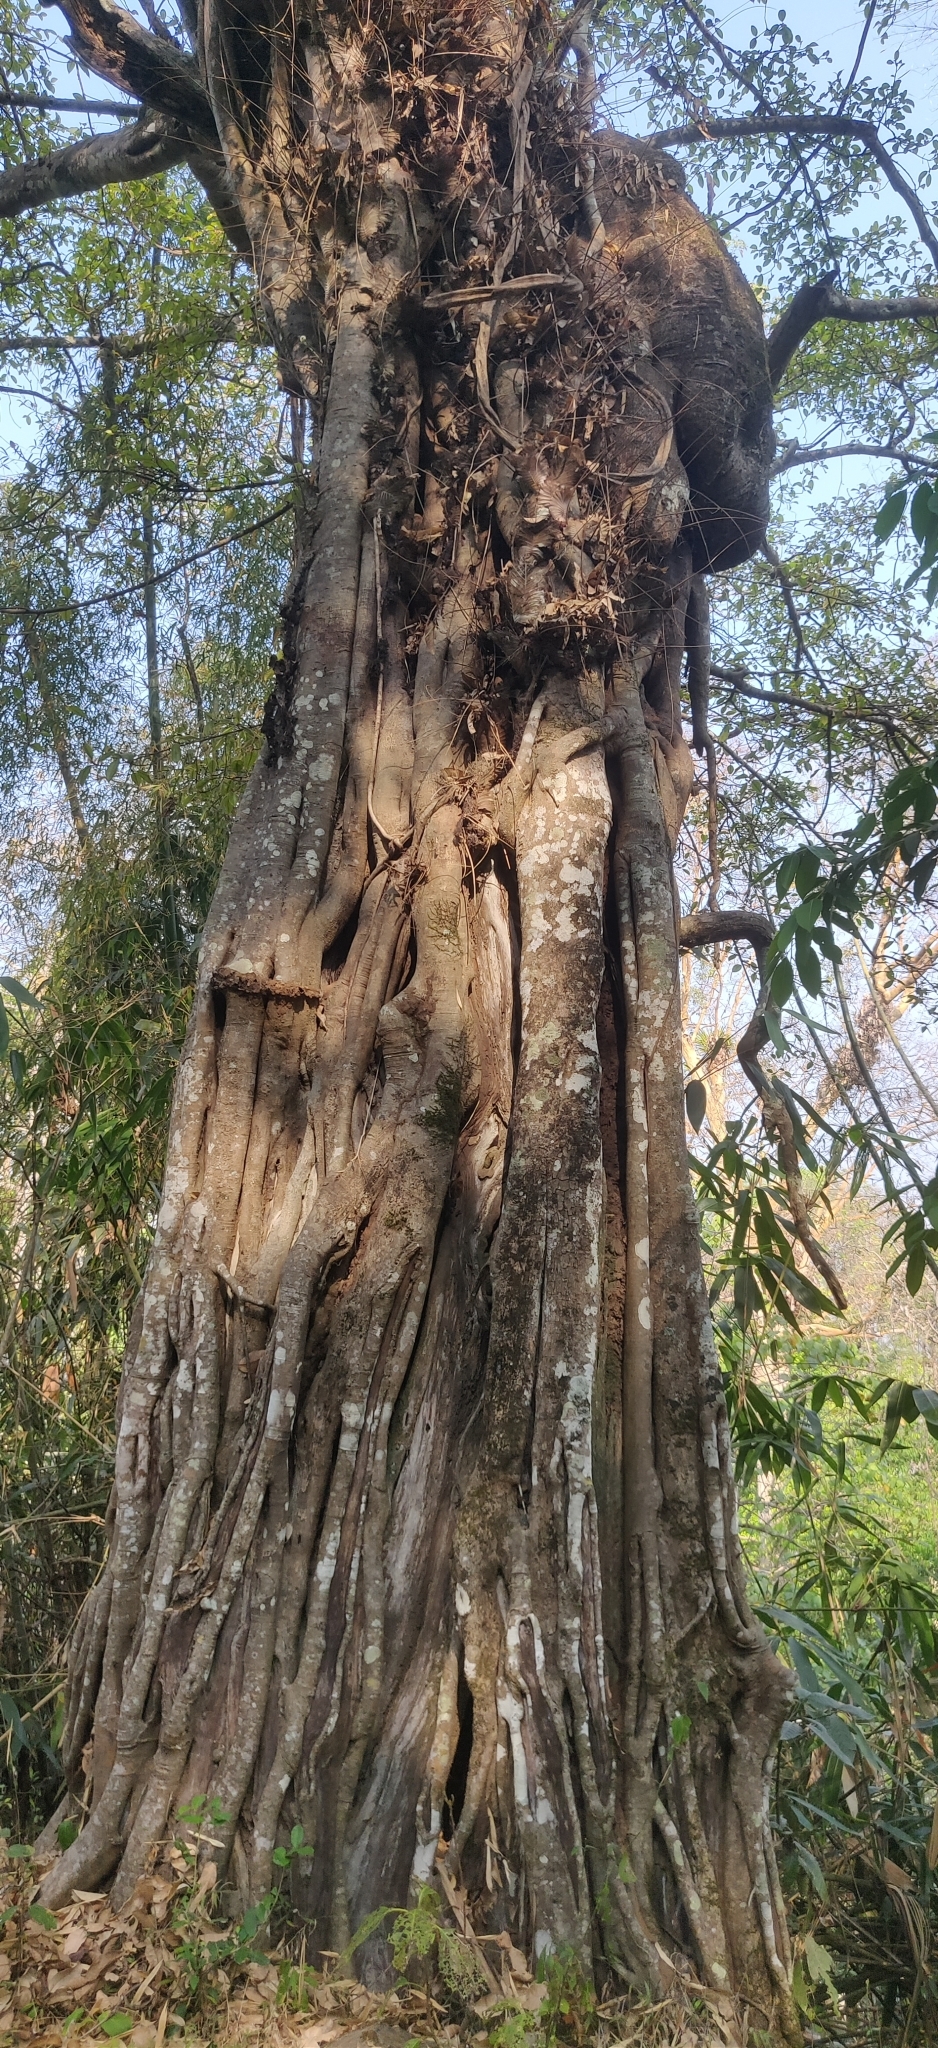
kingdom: Plantae
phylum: Tracheophyta
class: Magnoliopsida
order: Rosales
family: Moraceae
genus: Ficus
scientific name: Ficus drupacea
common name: Drupe fig
